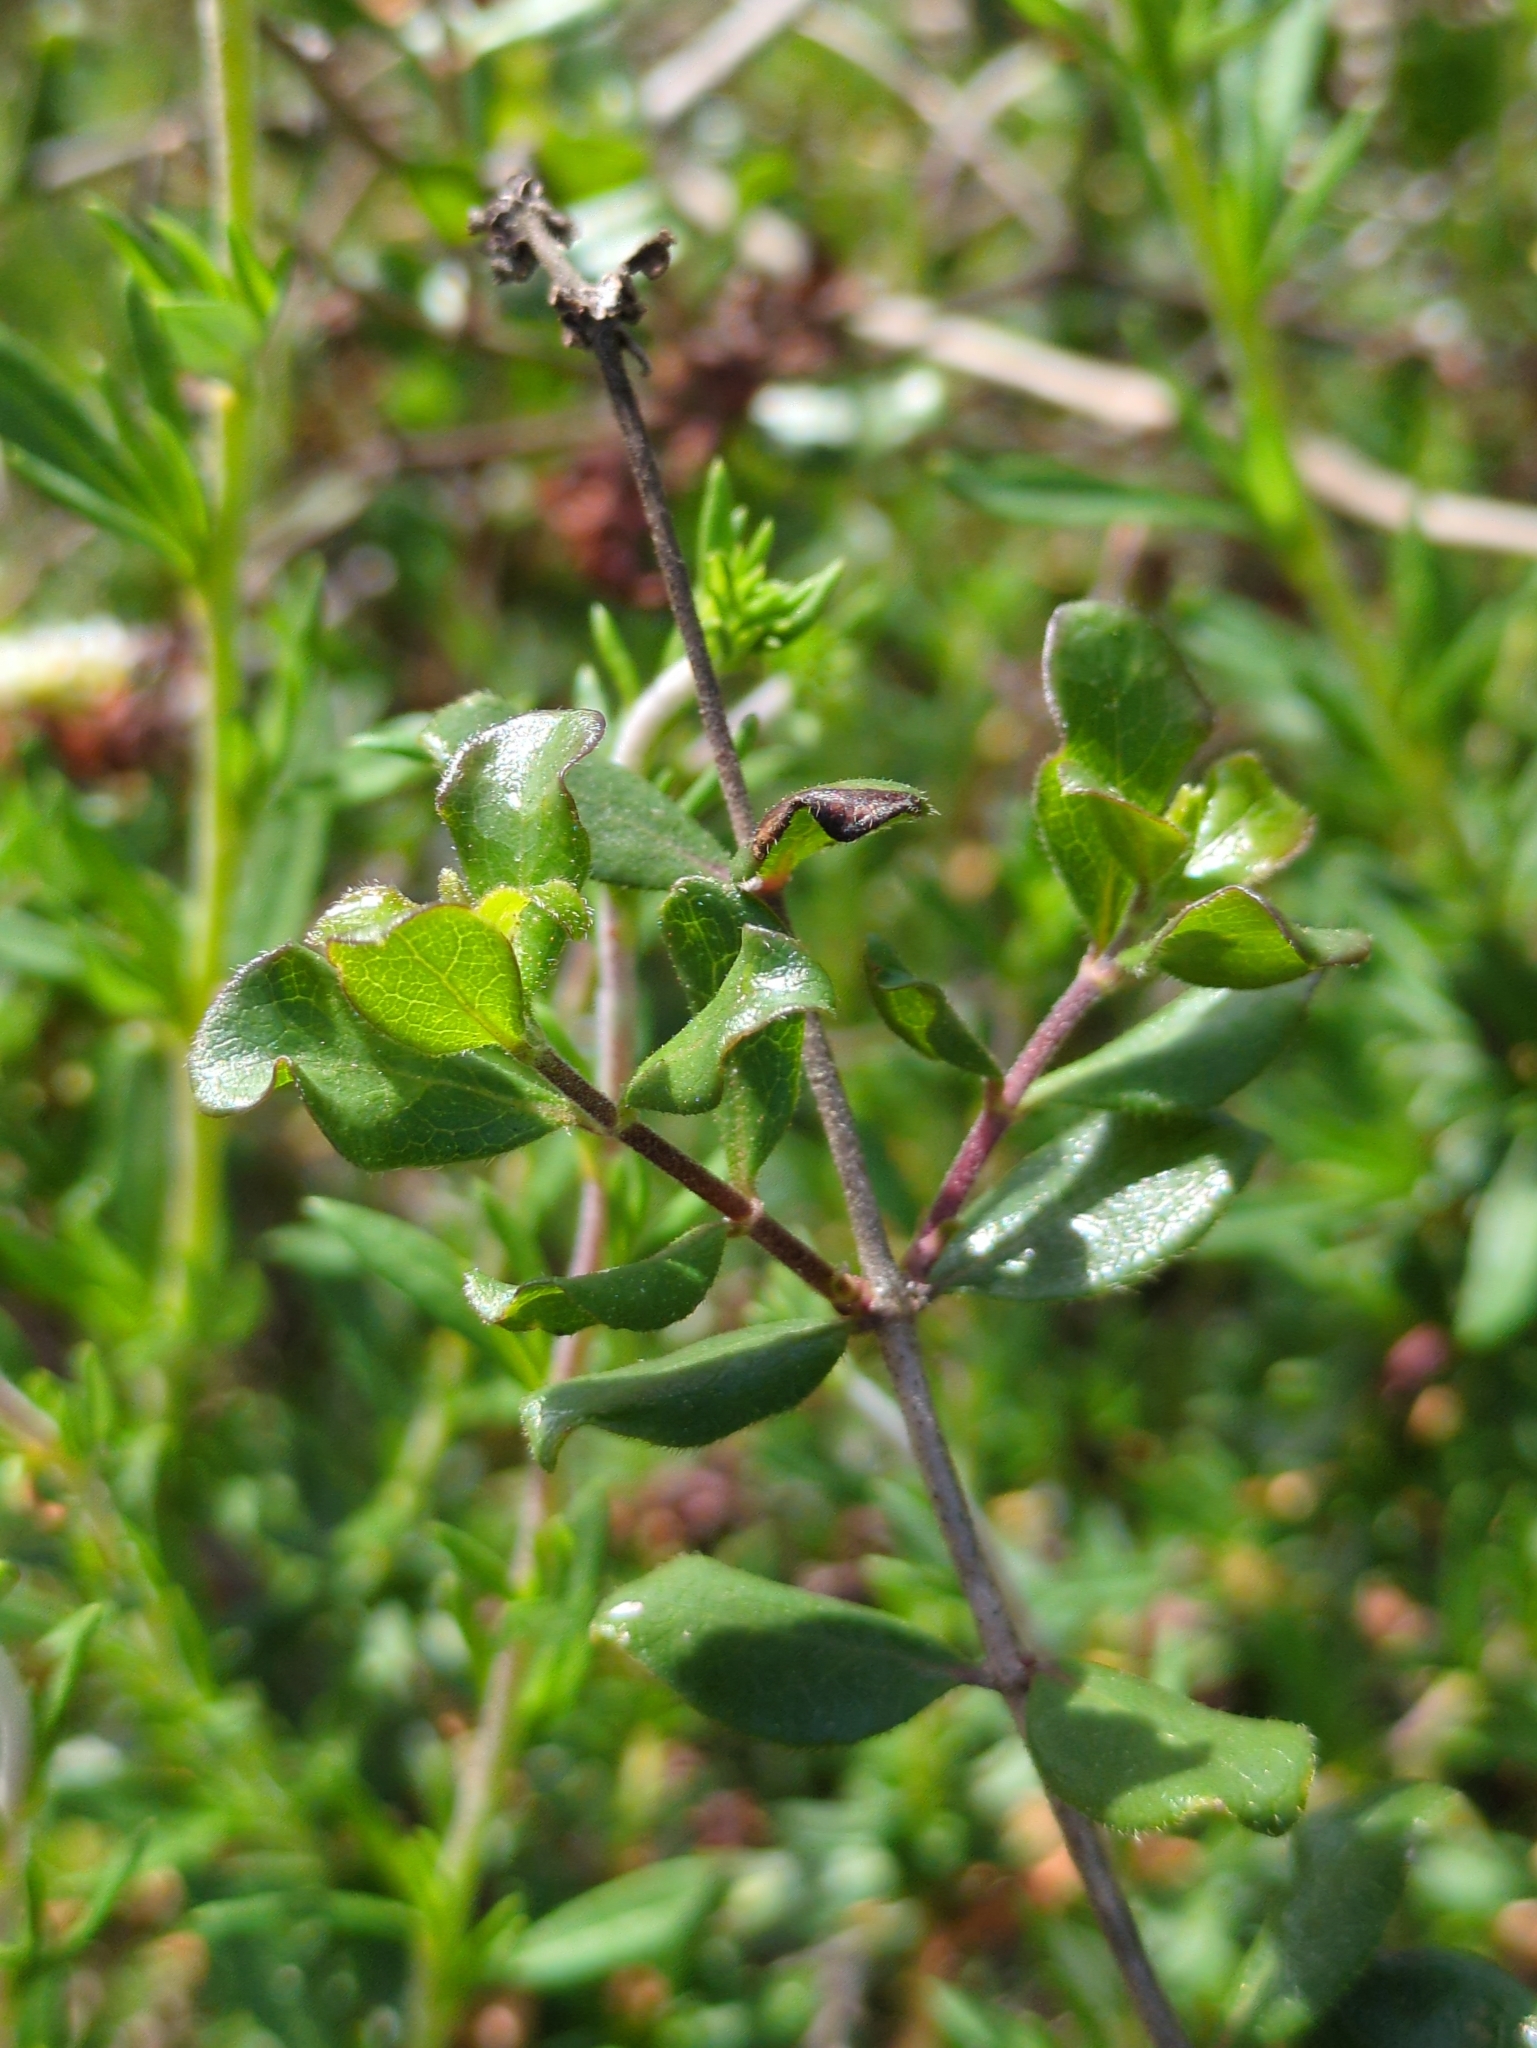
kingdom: Plantae
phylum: Tracheophyta
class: Magnoliopsida
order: Dipsacales
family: Caprifoliaceae
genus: Lonicera
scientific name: Lonicera subspicata
